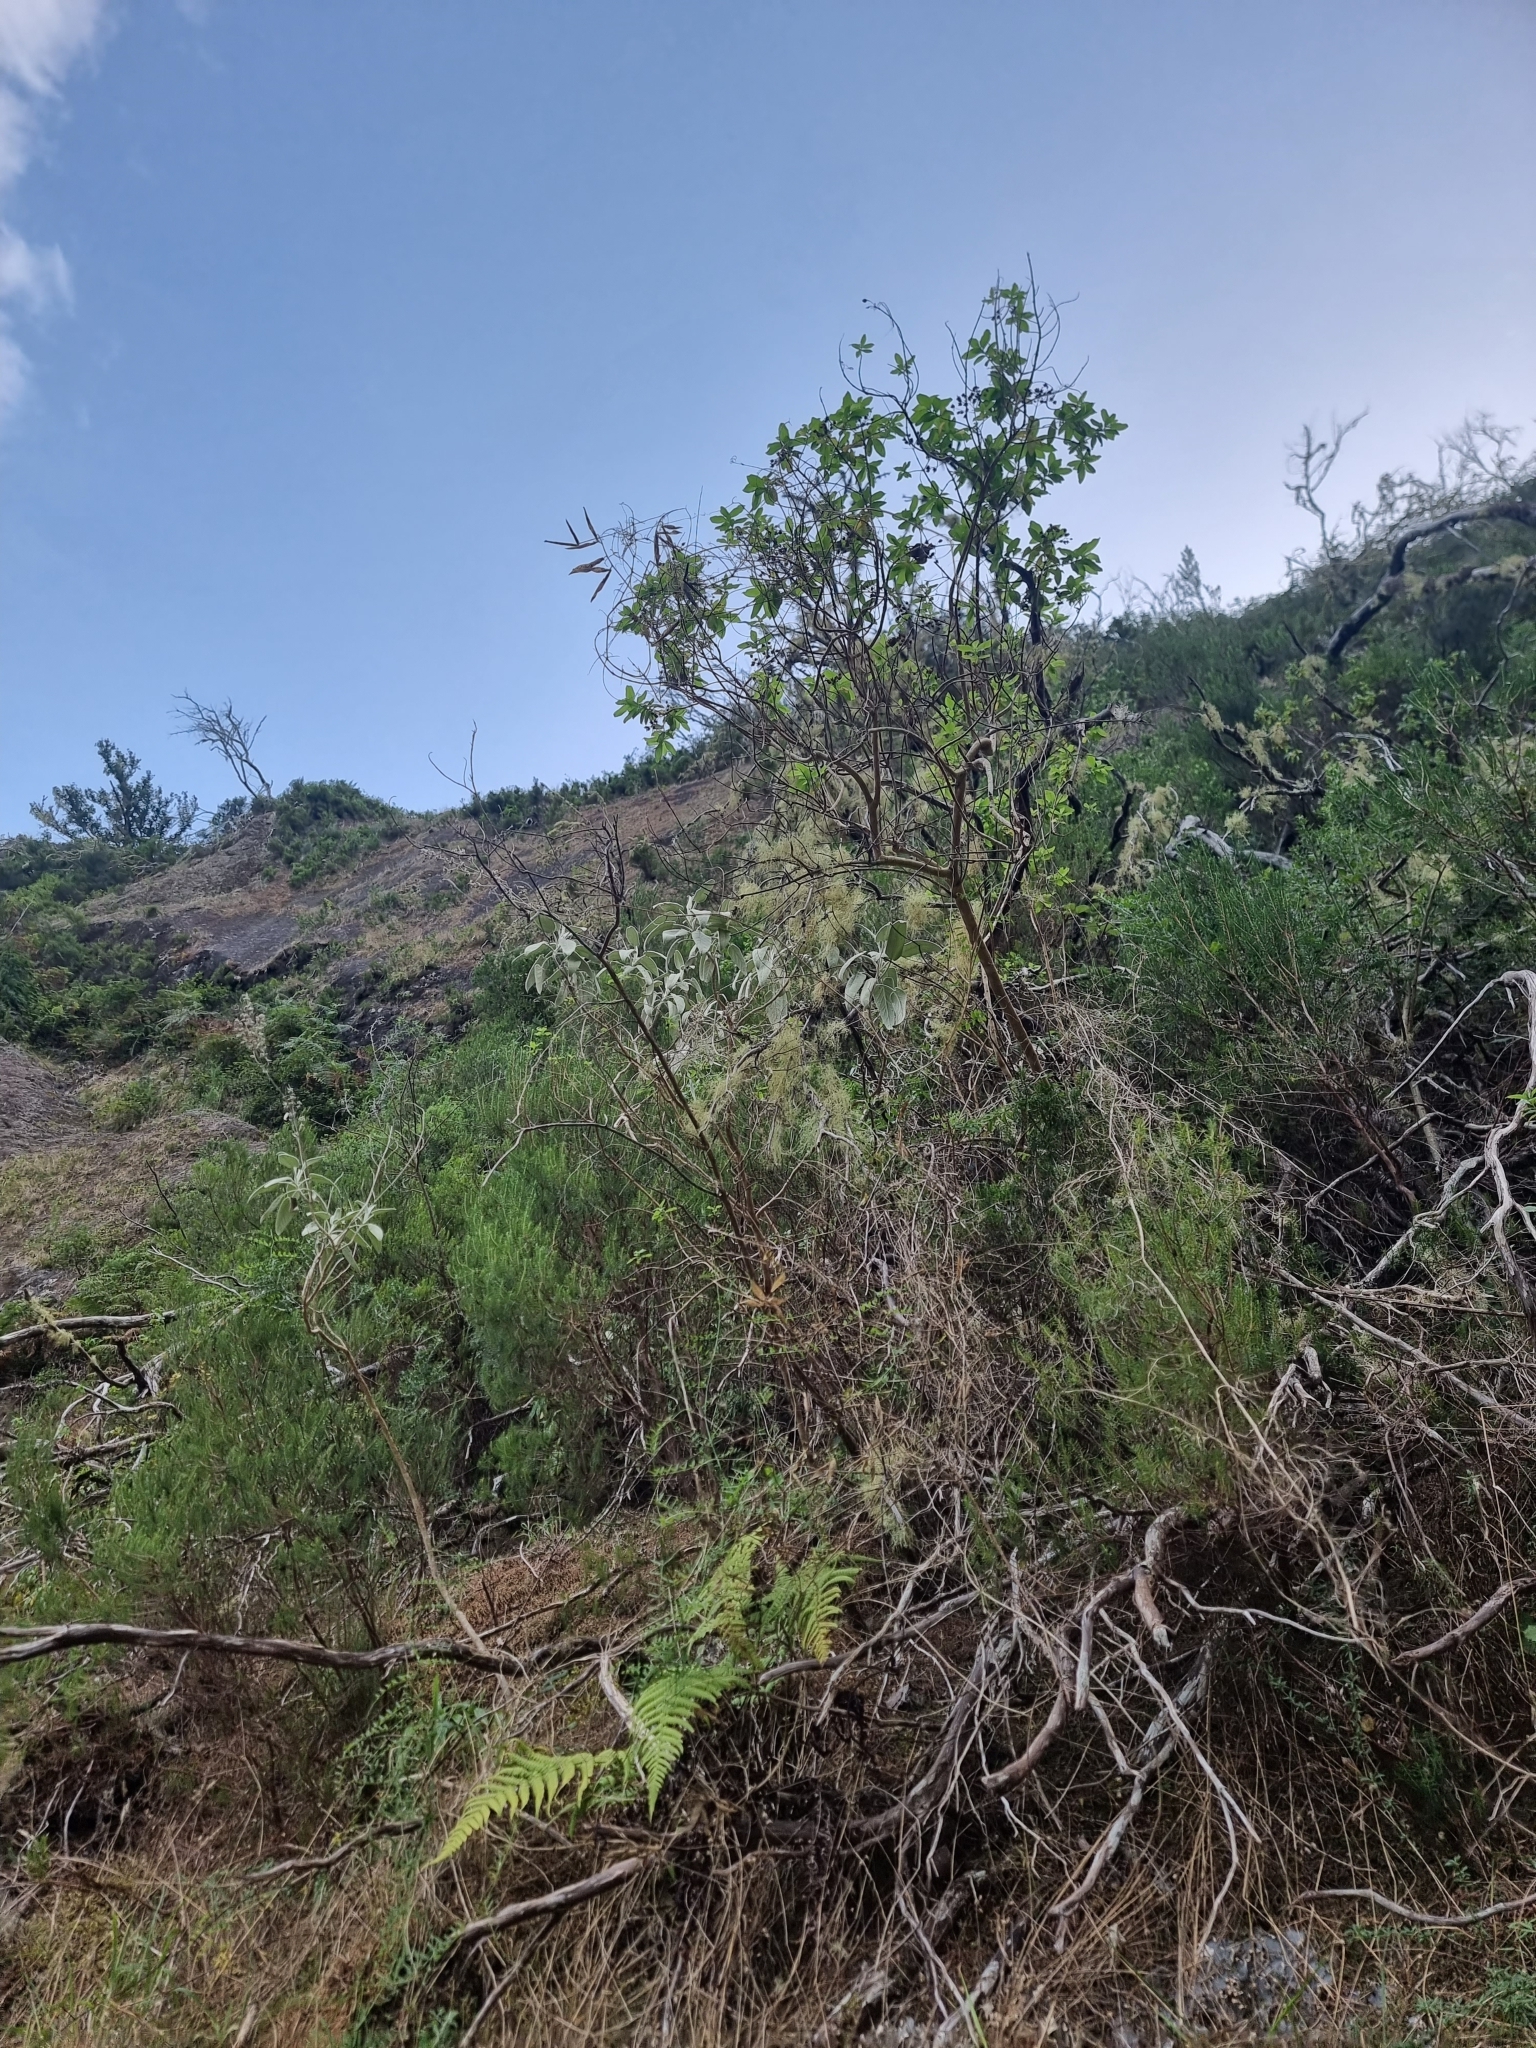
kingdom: Plantae
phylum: Tracheophyta
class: Magnoliopsida
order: Lamiales
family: Lamiaceae
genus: Sideritis
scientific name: Sideritis candicans
